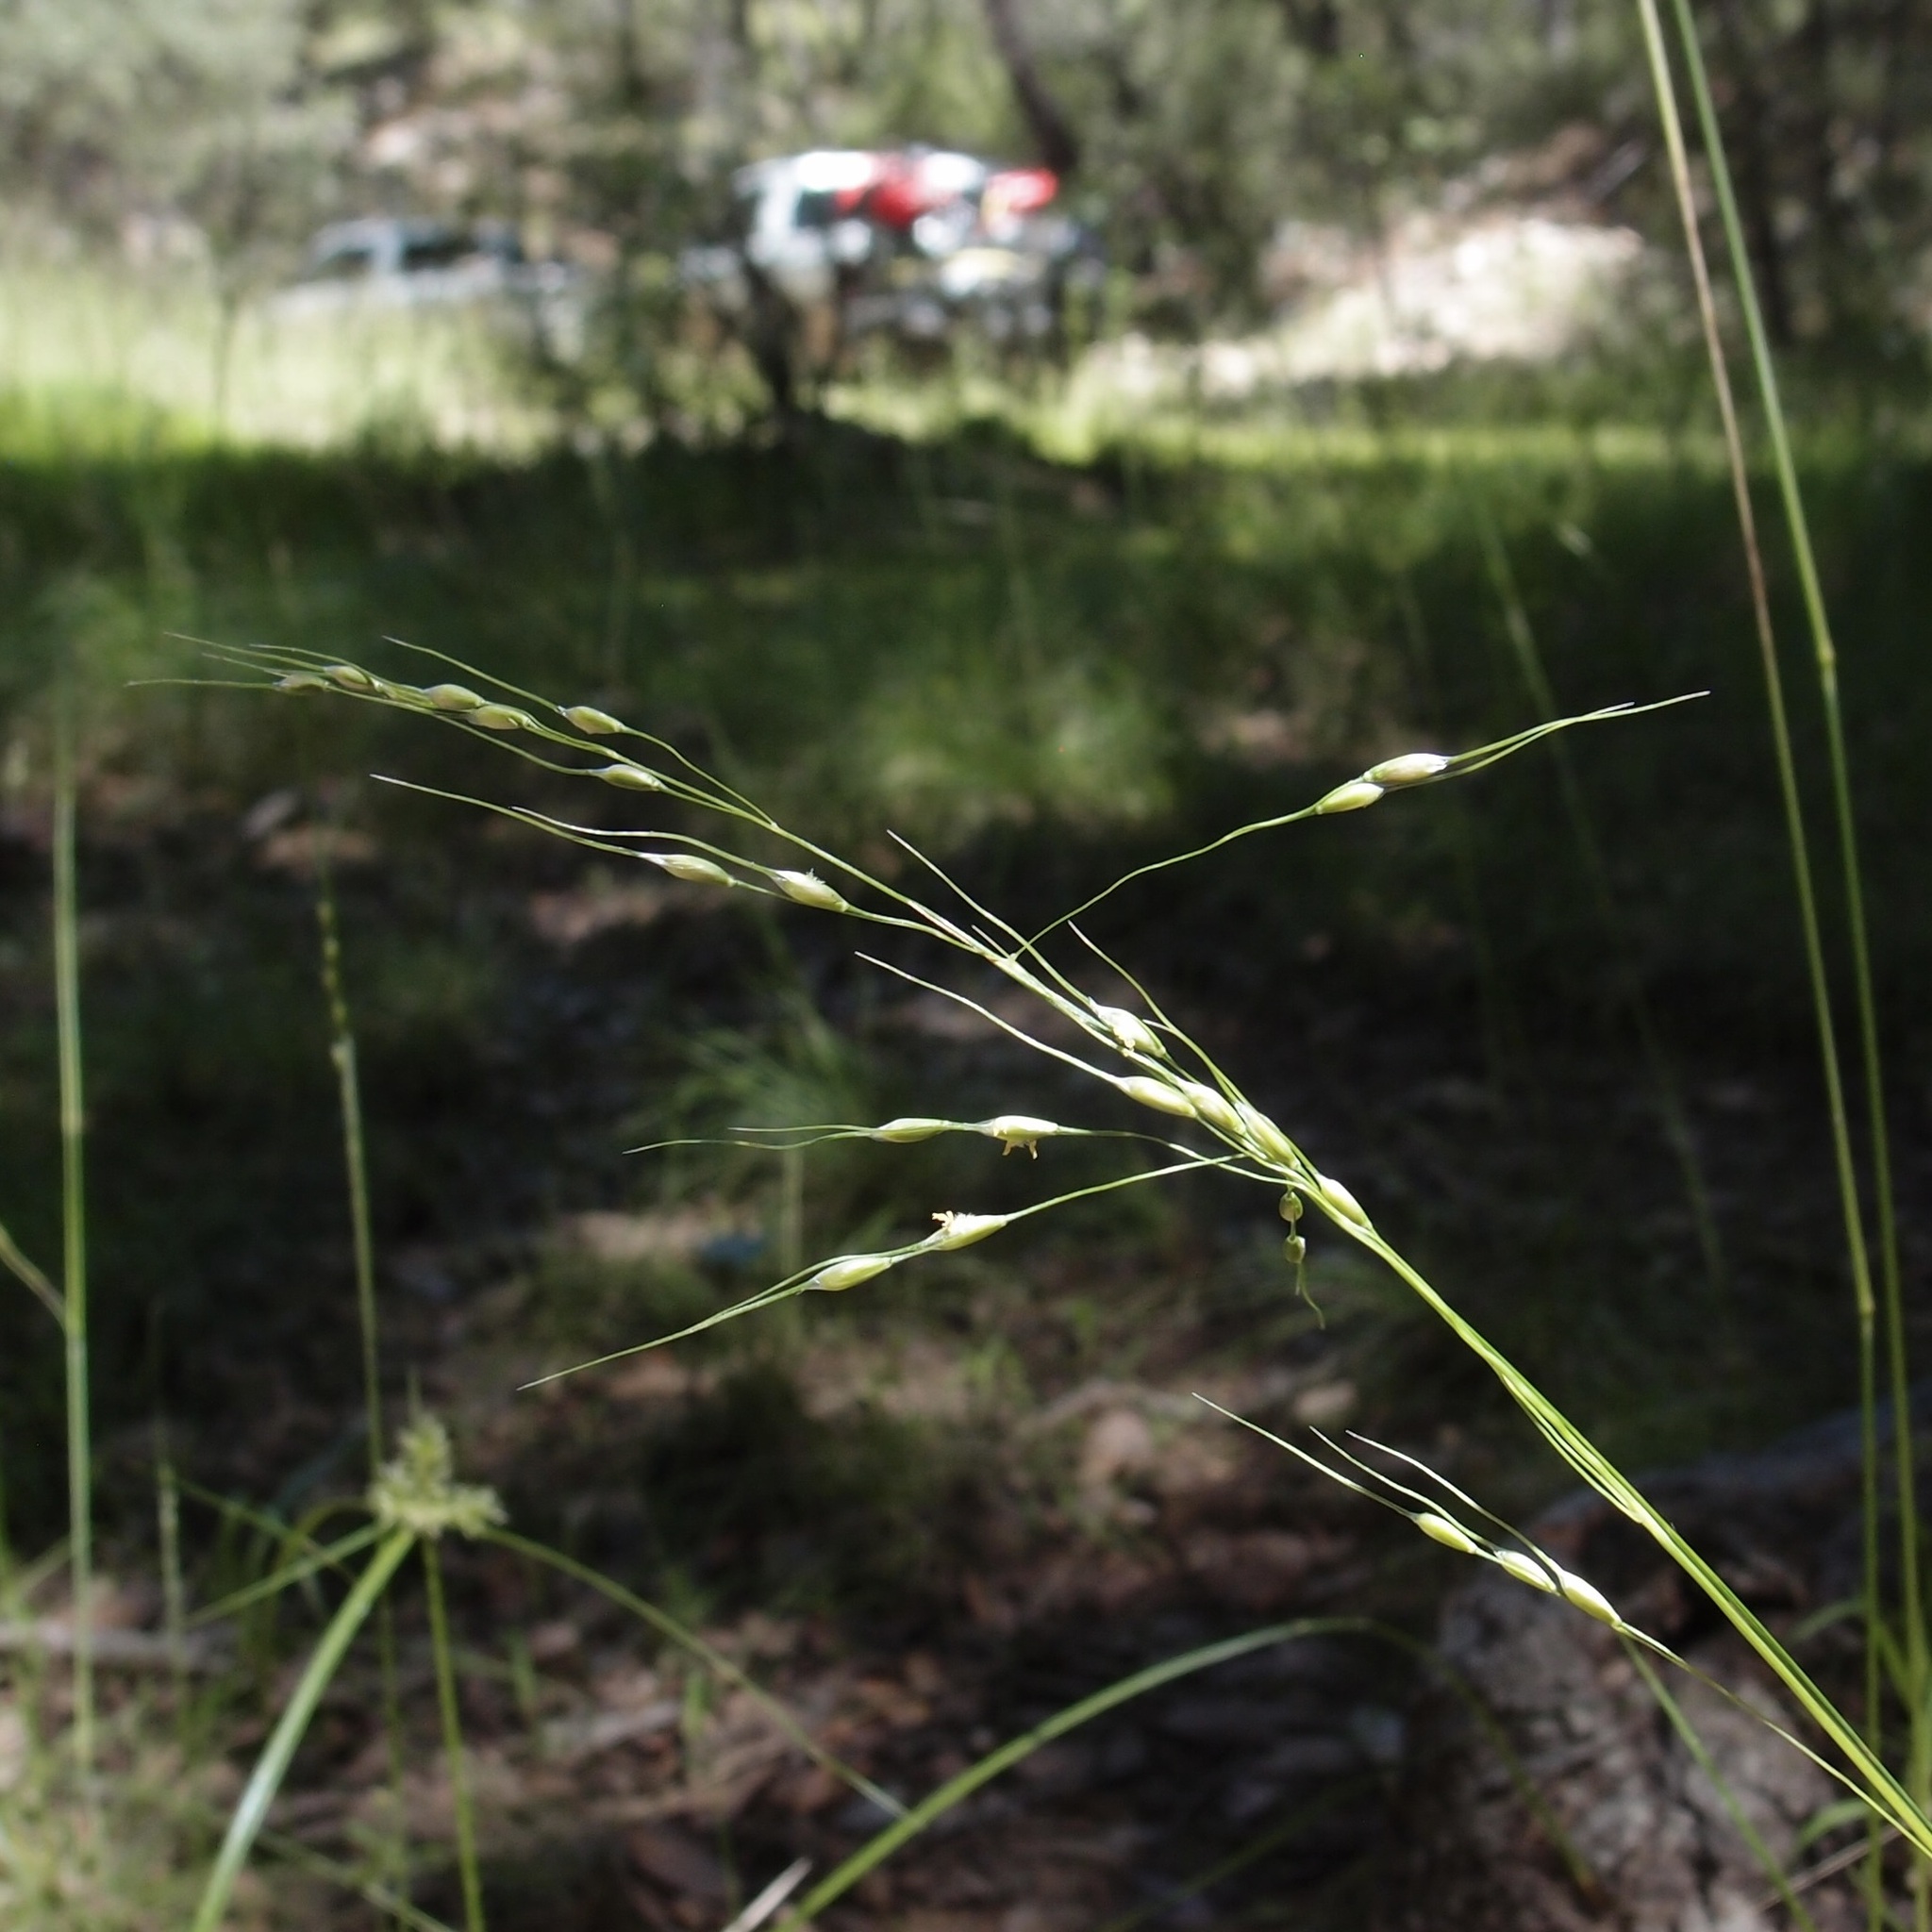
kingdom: Plantae
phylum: Tracheophyta
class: Liliopsida
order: Poales
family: Poaceae
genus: Piptochaetium
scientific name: Piptochaetium fimbriatum
